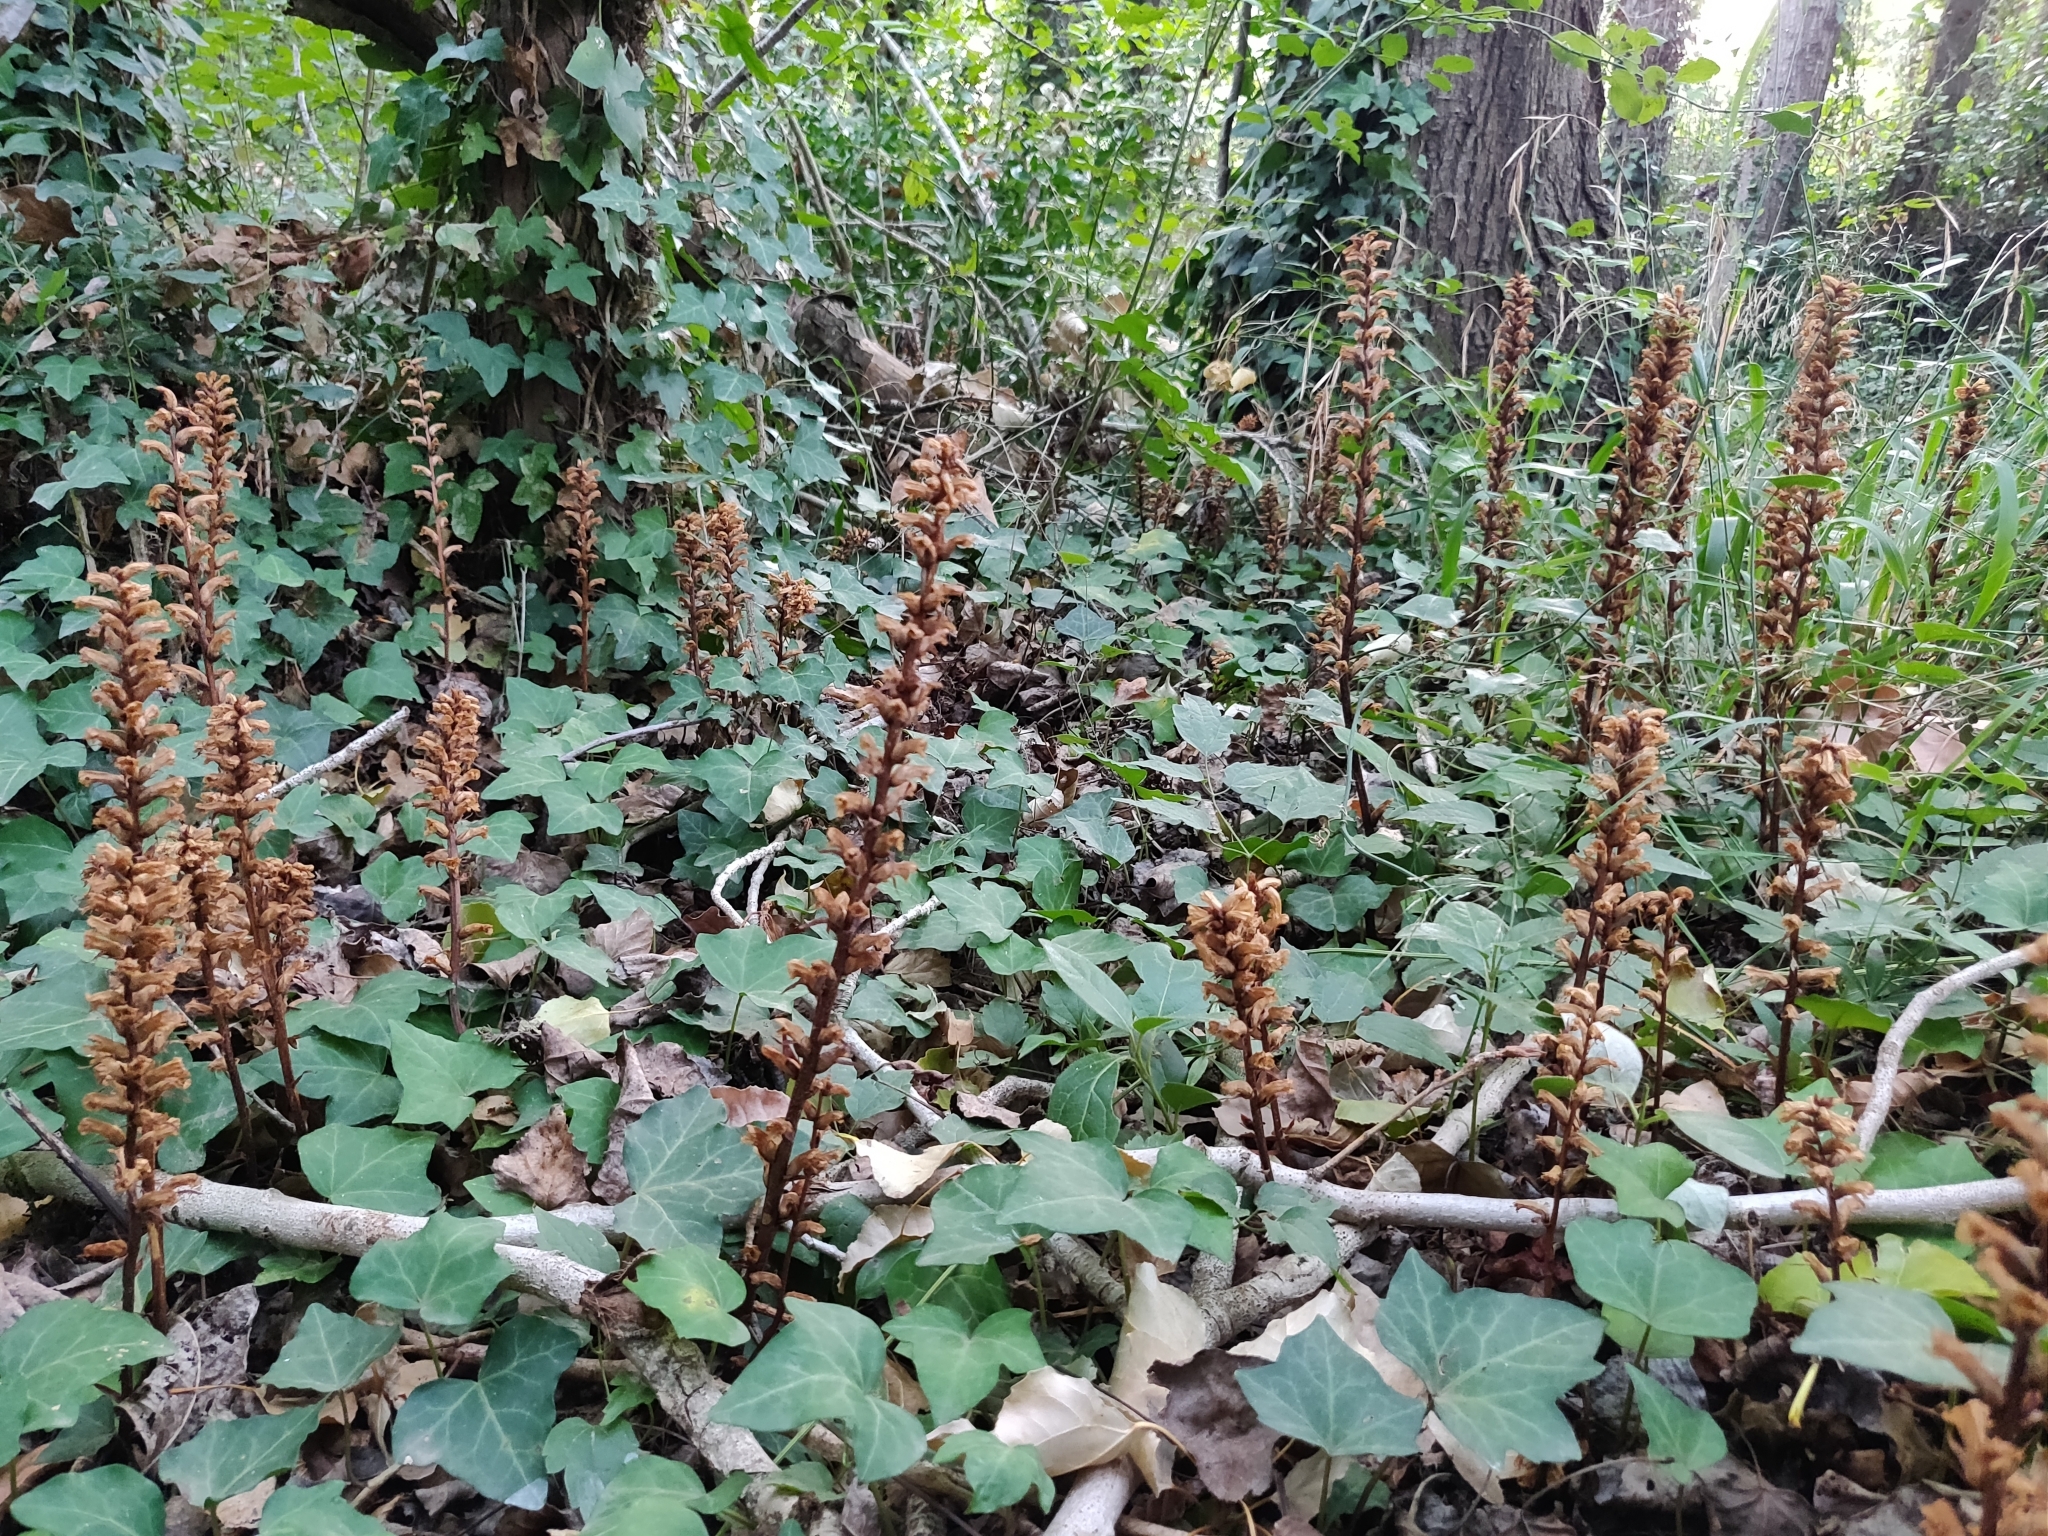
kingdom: Plantae
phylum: Tracheophyta
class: Magnoliopsida
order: Lamiales
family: Orobanchaceae
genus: Orobanche
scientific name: Orobanche hederae
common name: Ivy broomrape
